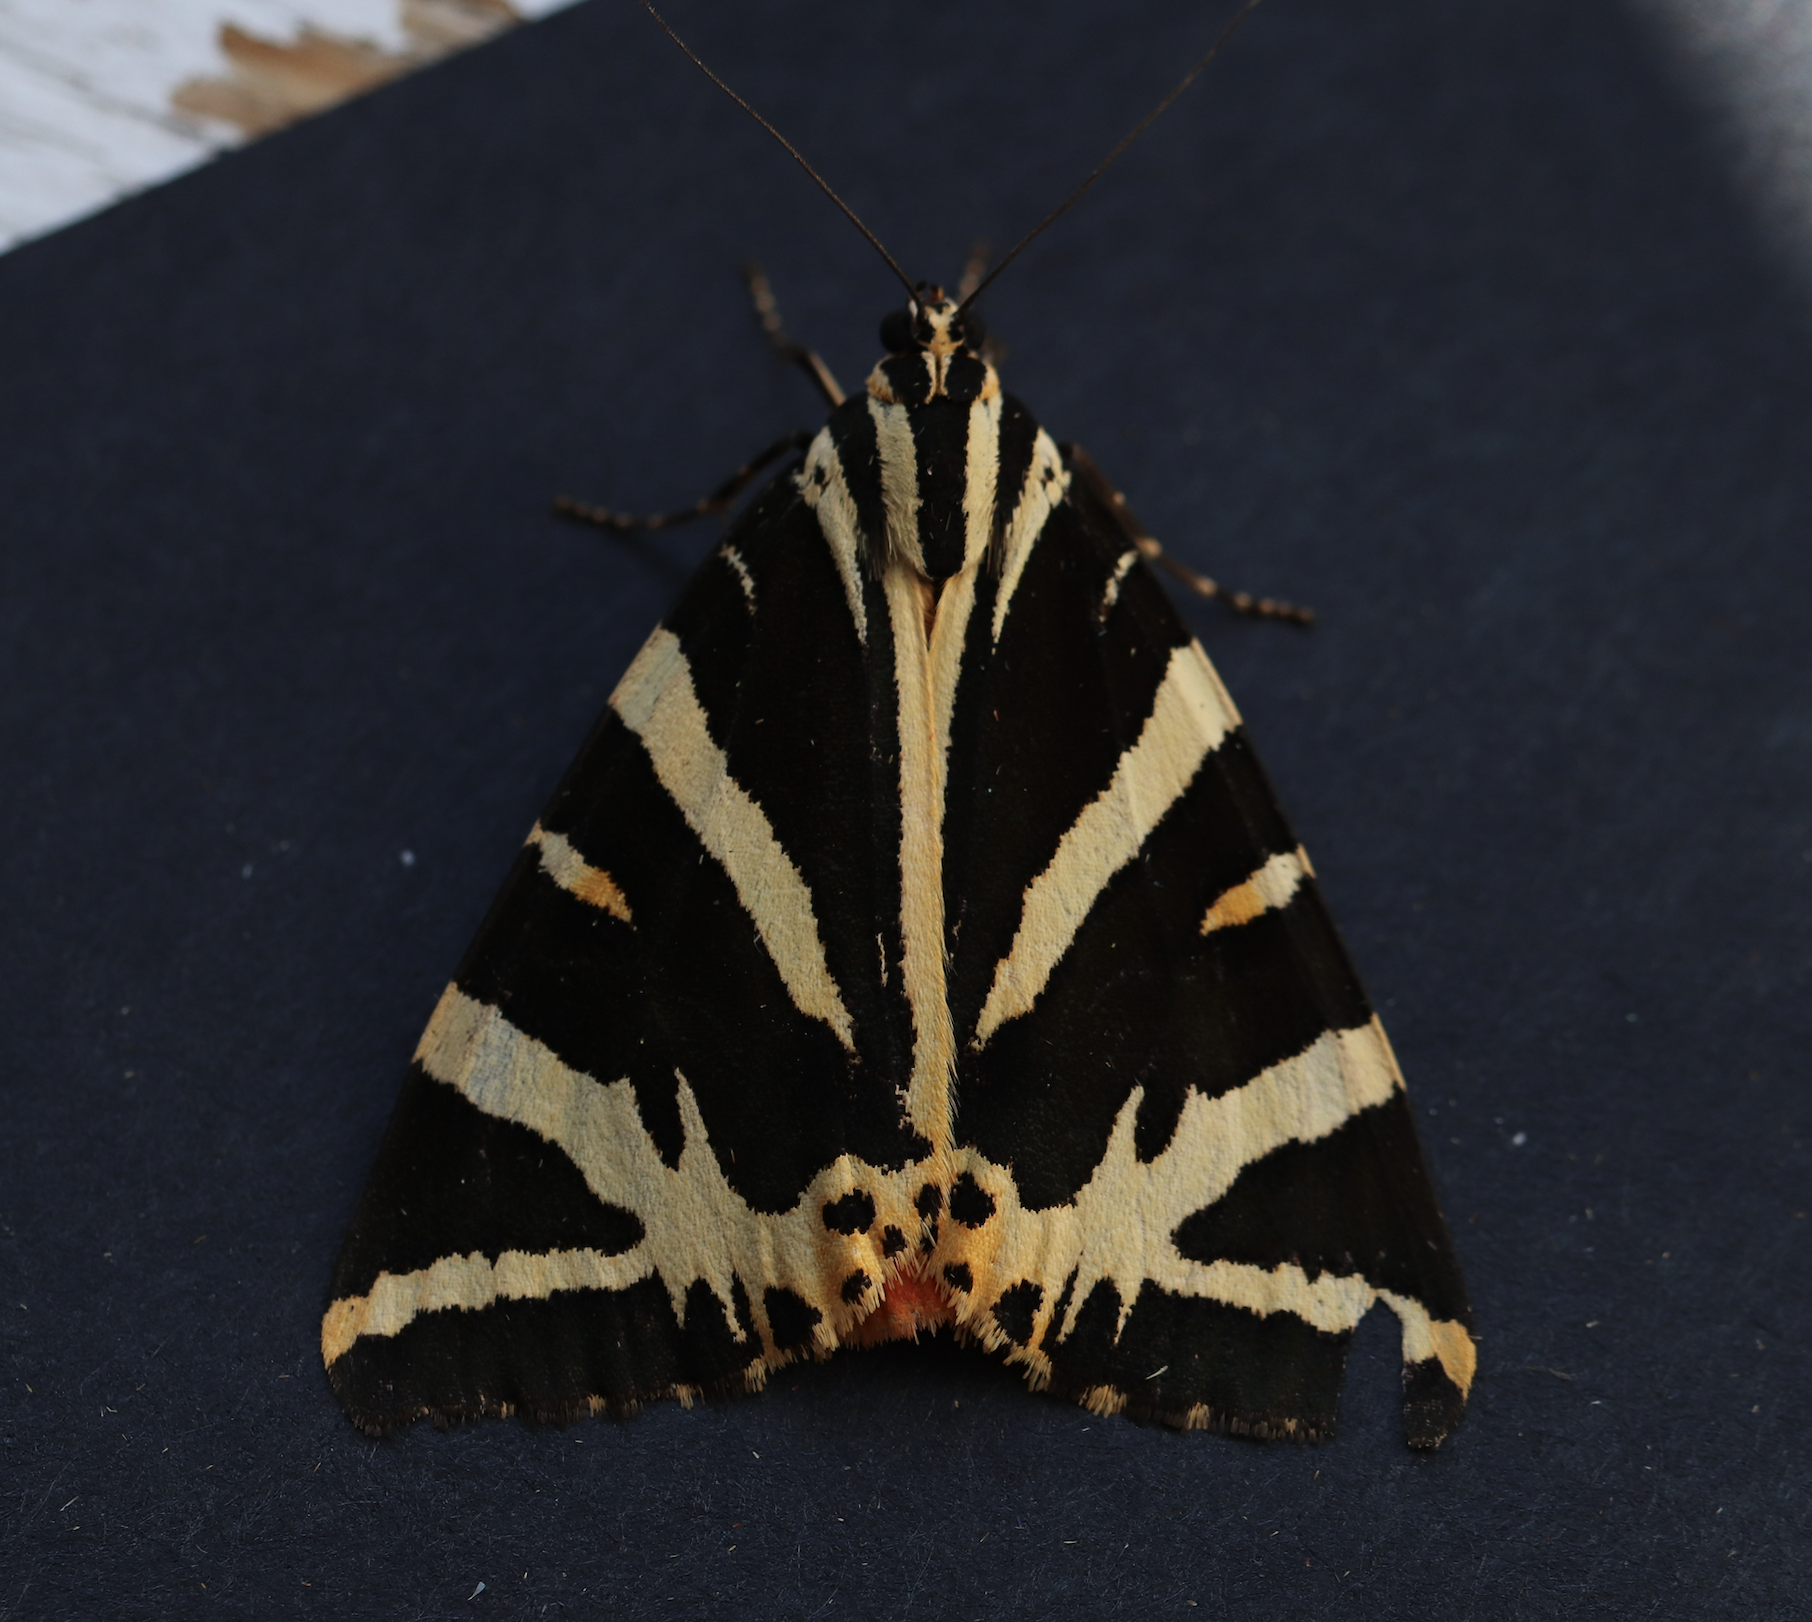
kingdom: Animalia
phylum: Arthropoda
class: Insecta
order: Lepidoptera
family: Erebidae
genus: Euplagia
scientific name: Euplagia quadripunctaria
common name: Jersey tiger
